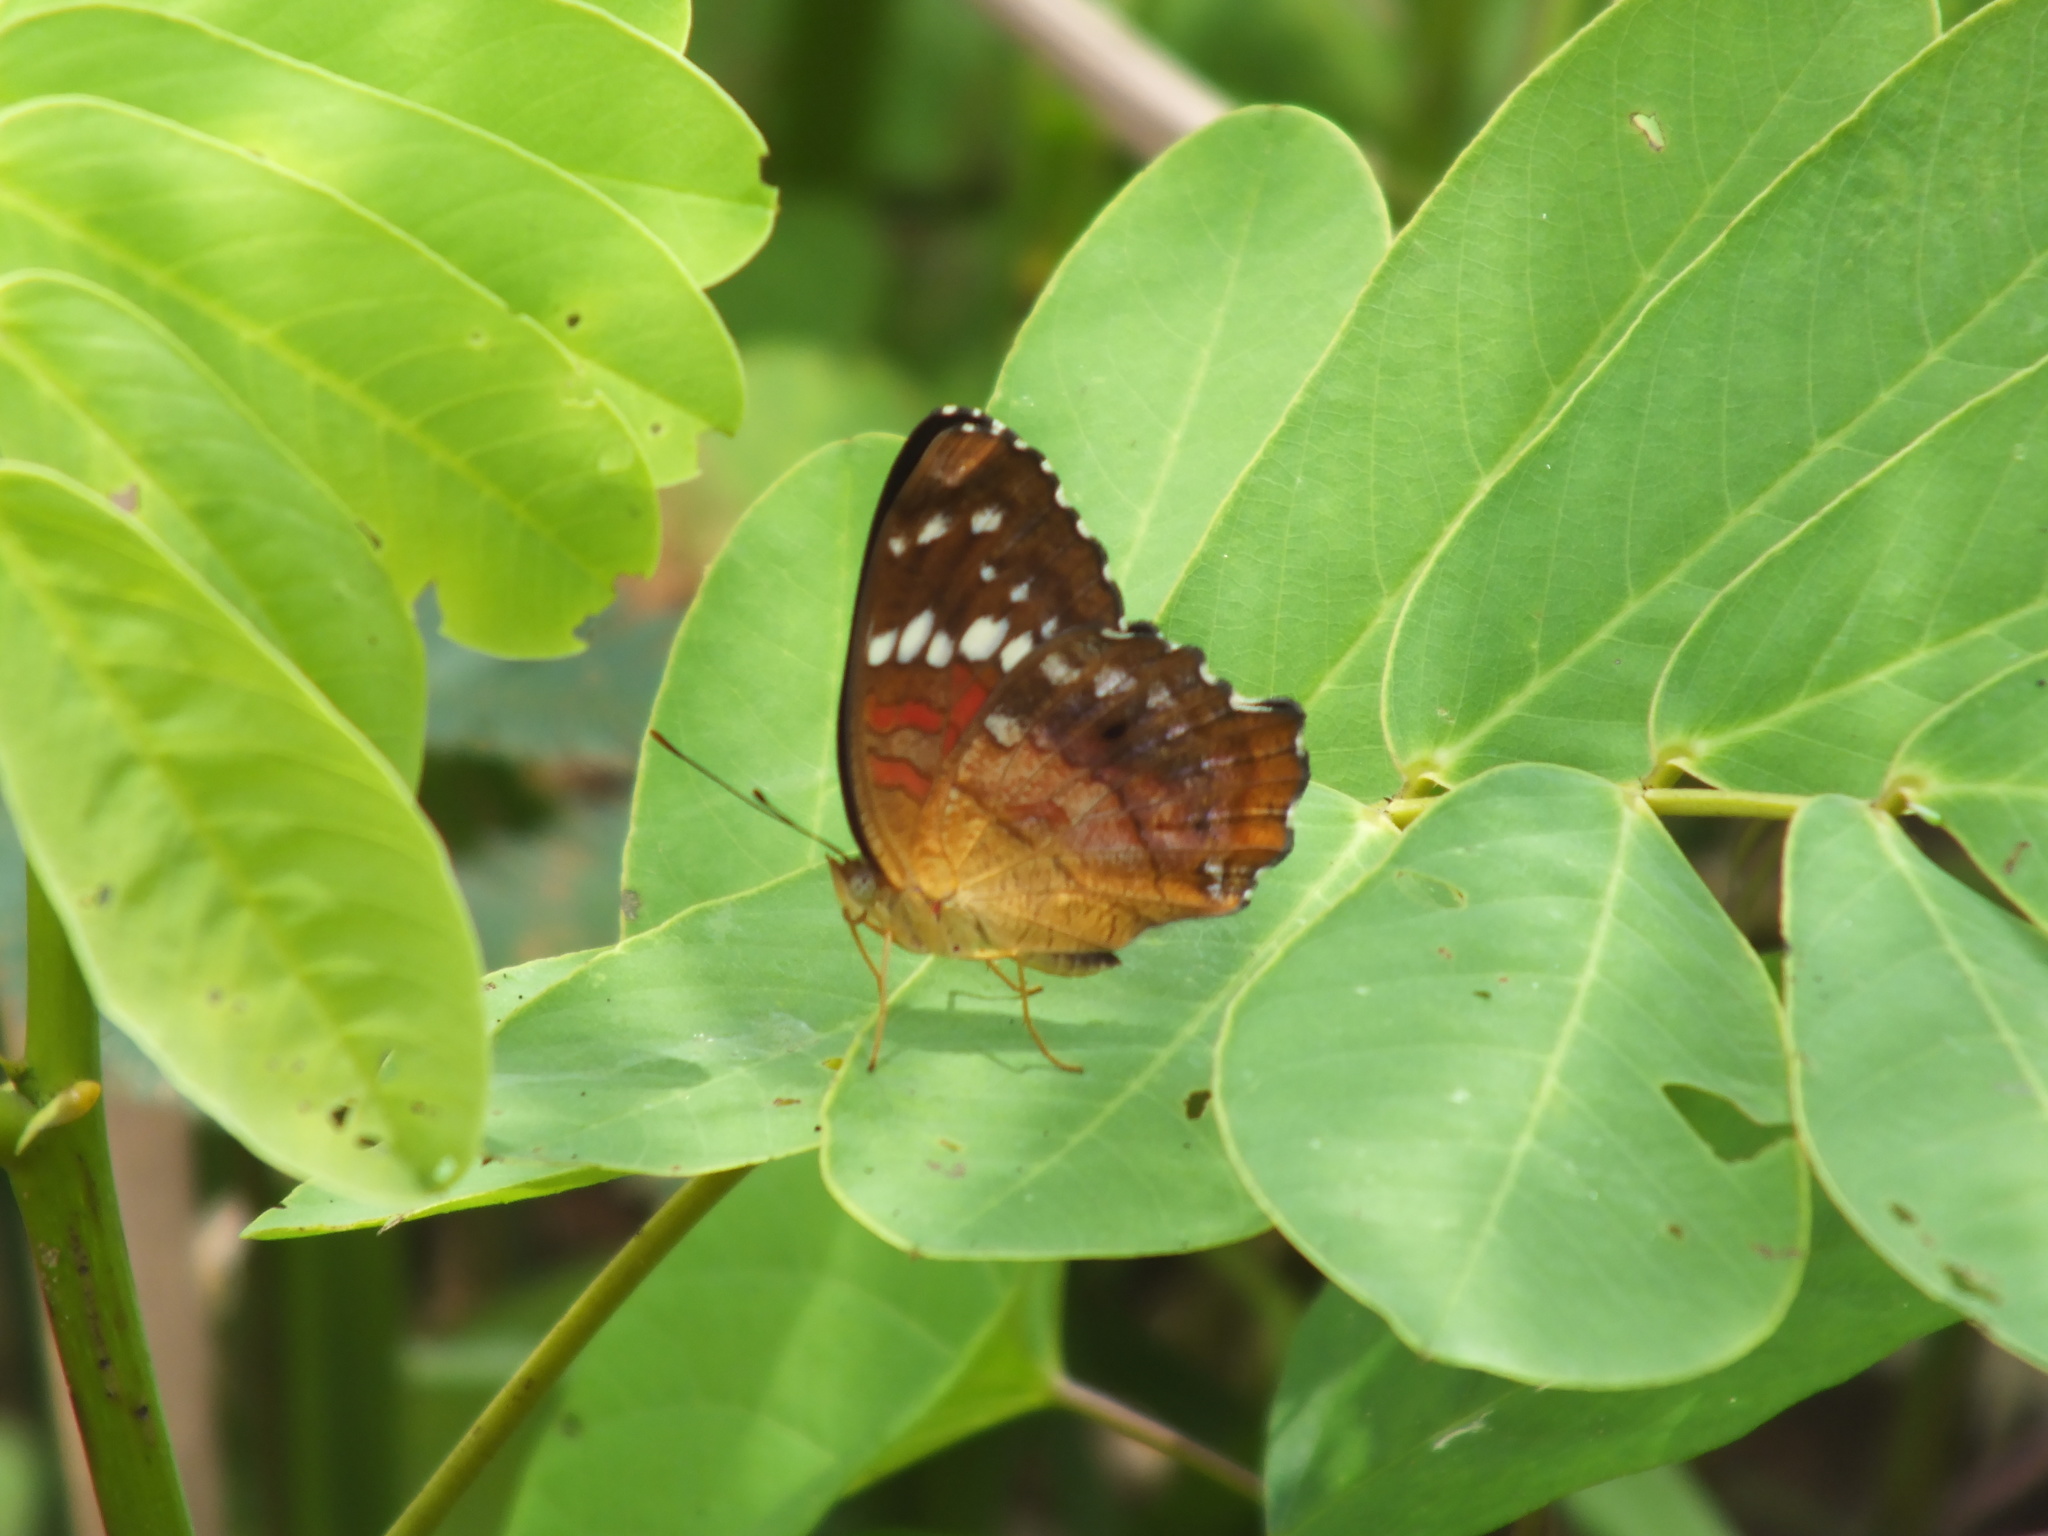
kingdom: Animalia
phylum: Arthropoda
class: Insecta
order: Lepidoptera
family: Nymphalidae
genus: Anartia
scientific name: Anartia amathea
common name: Red peacock
